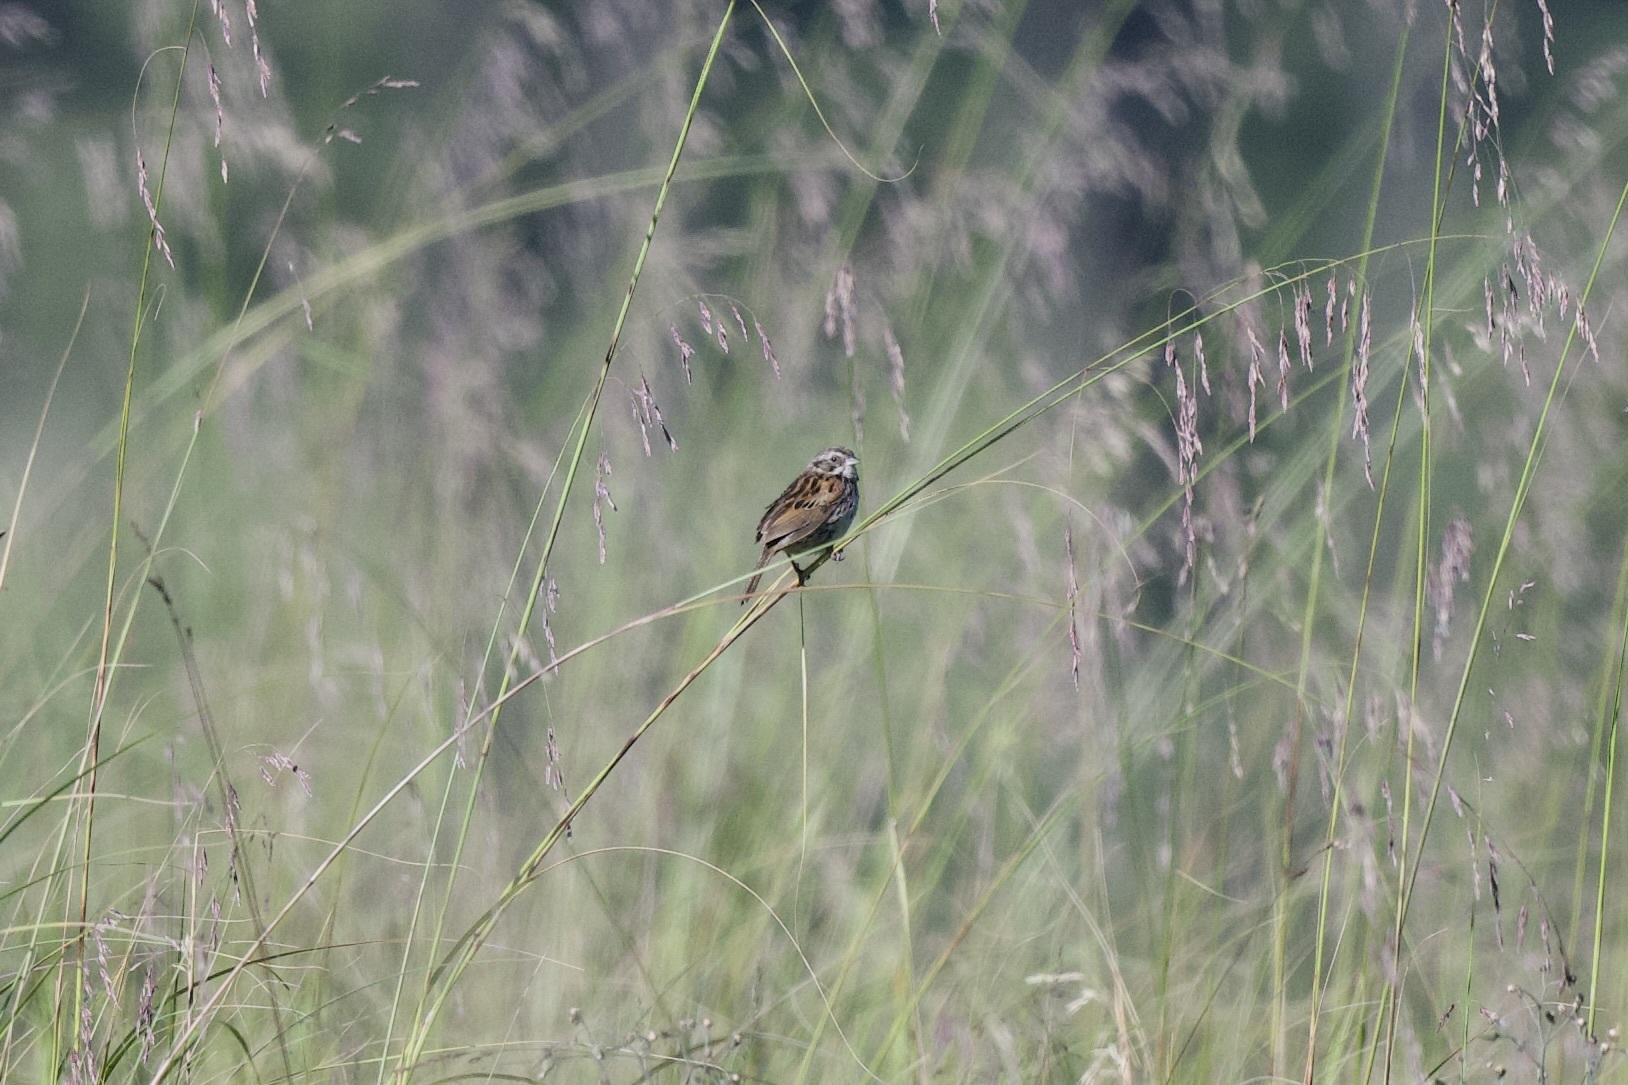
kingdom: Animalia
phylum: Chordata
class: Aves
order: Passeriformes
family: Passerellidae
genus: Xenospiza
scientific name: Xenospiza baileyi
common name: Sierra madre sparrow
